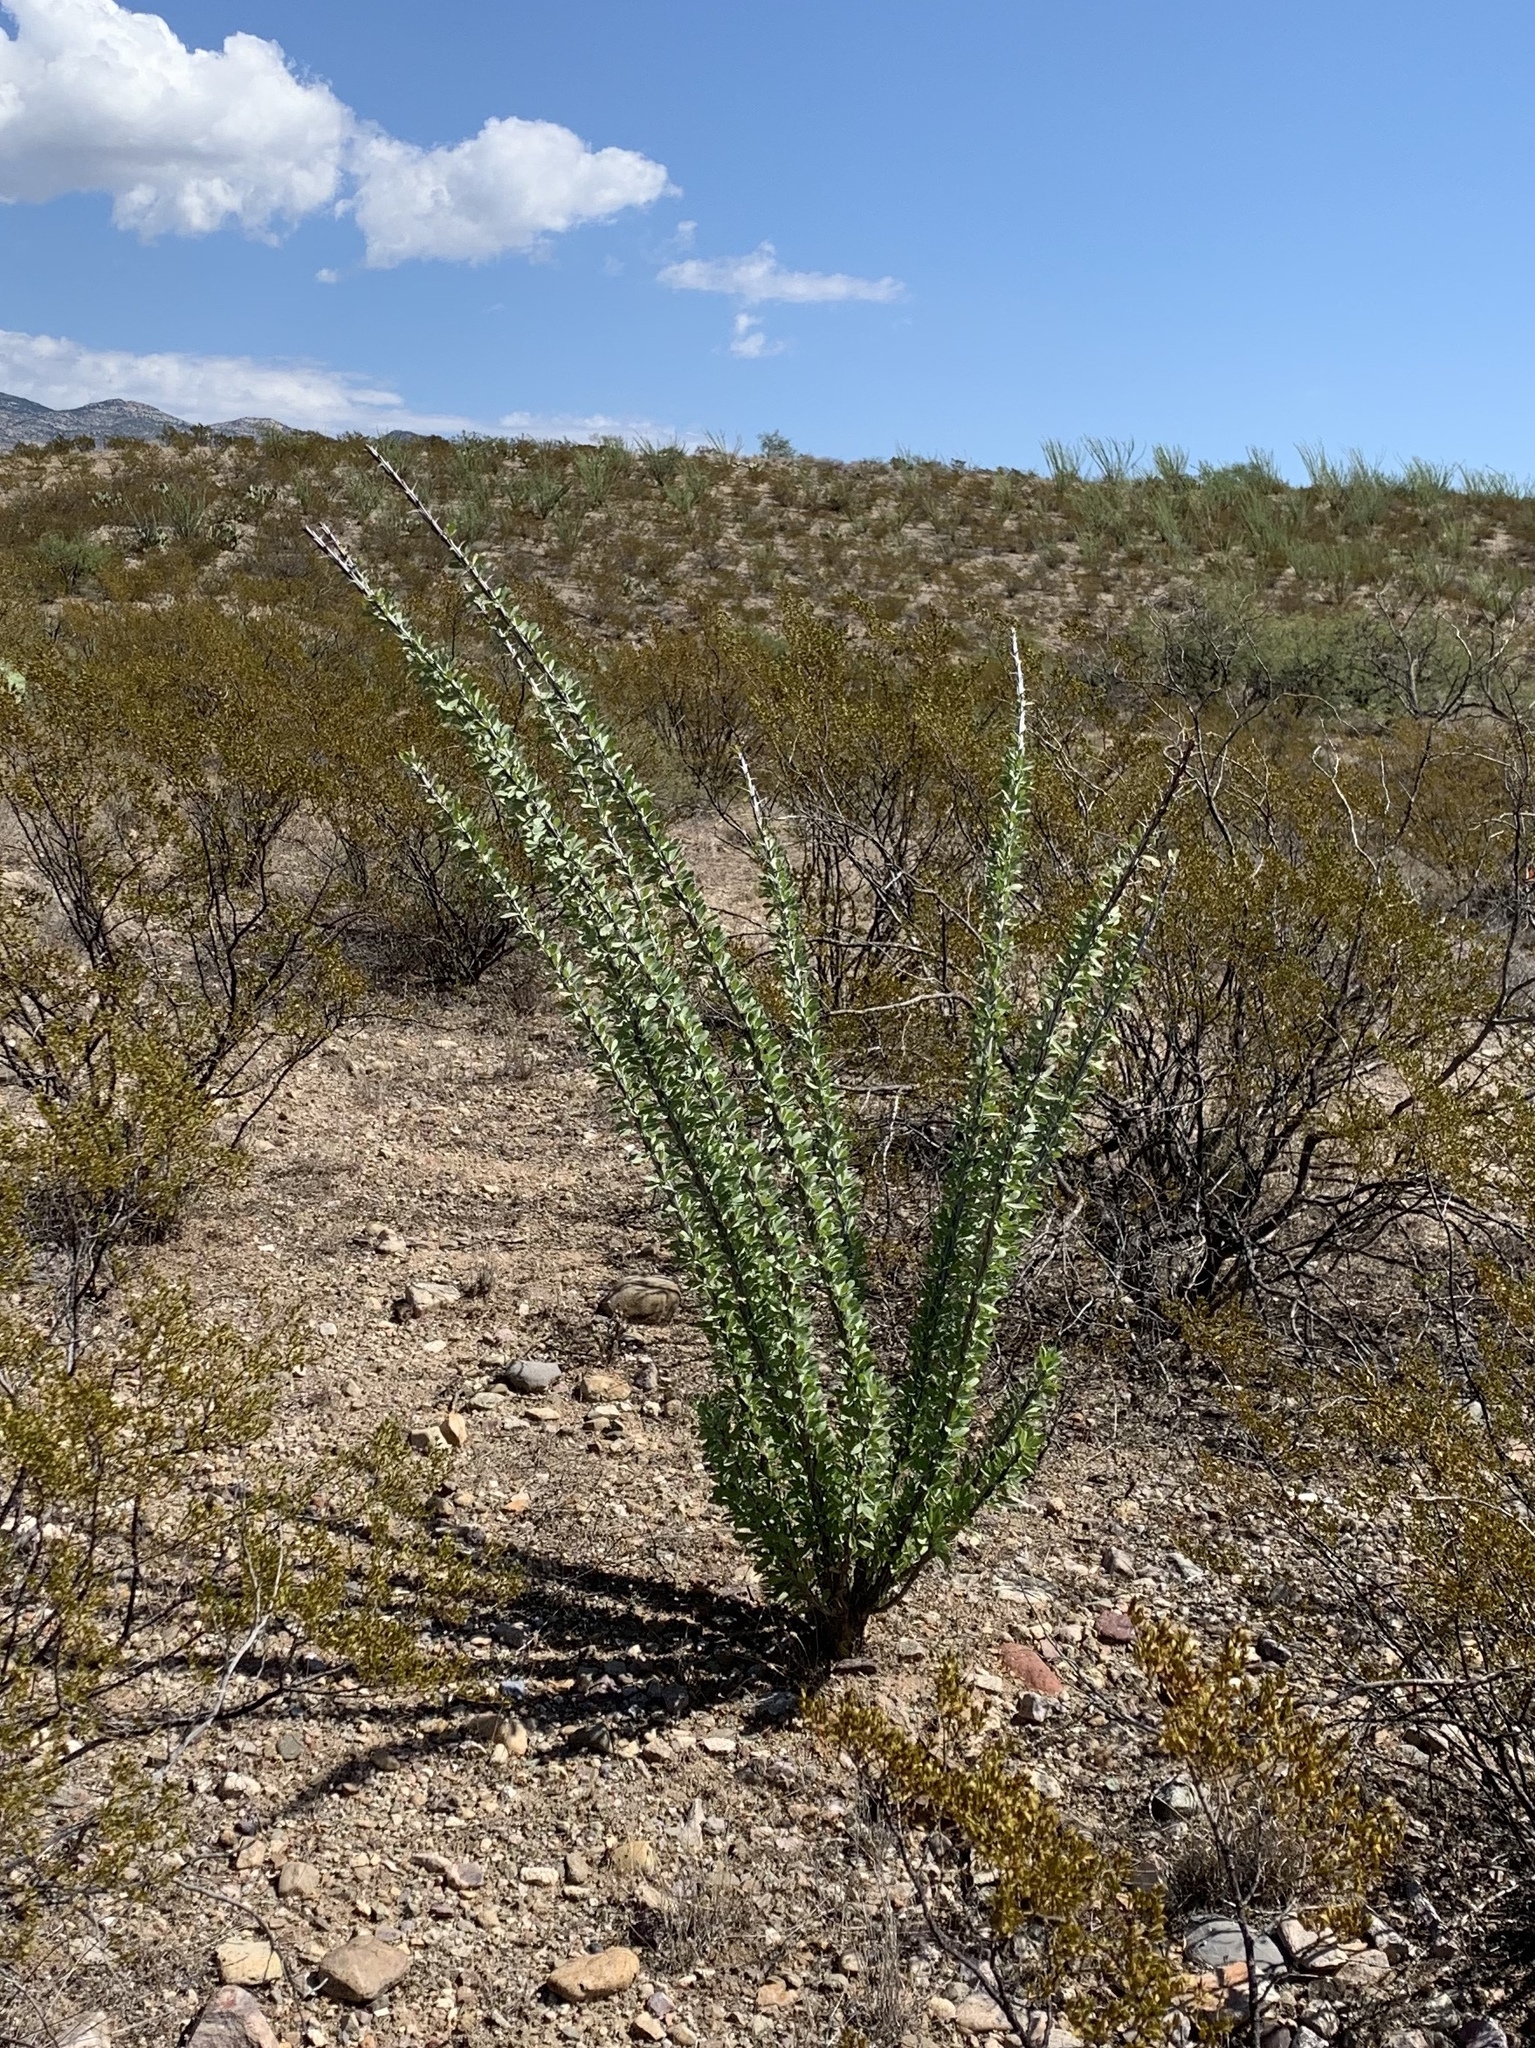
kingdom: Plantae
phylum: Tracheophyta
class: Magnoliopsida
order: Ericales
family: Fouquieriaceae
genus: Fouquieria
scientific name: Fouquieria splendens
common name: Vine-cactus
